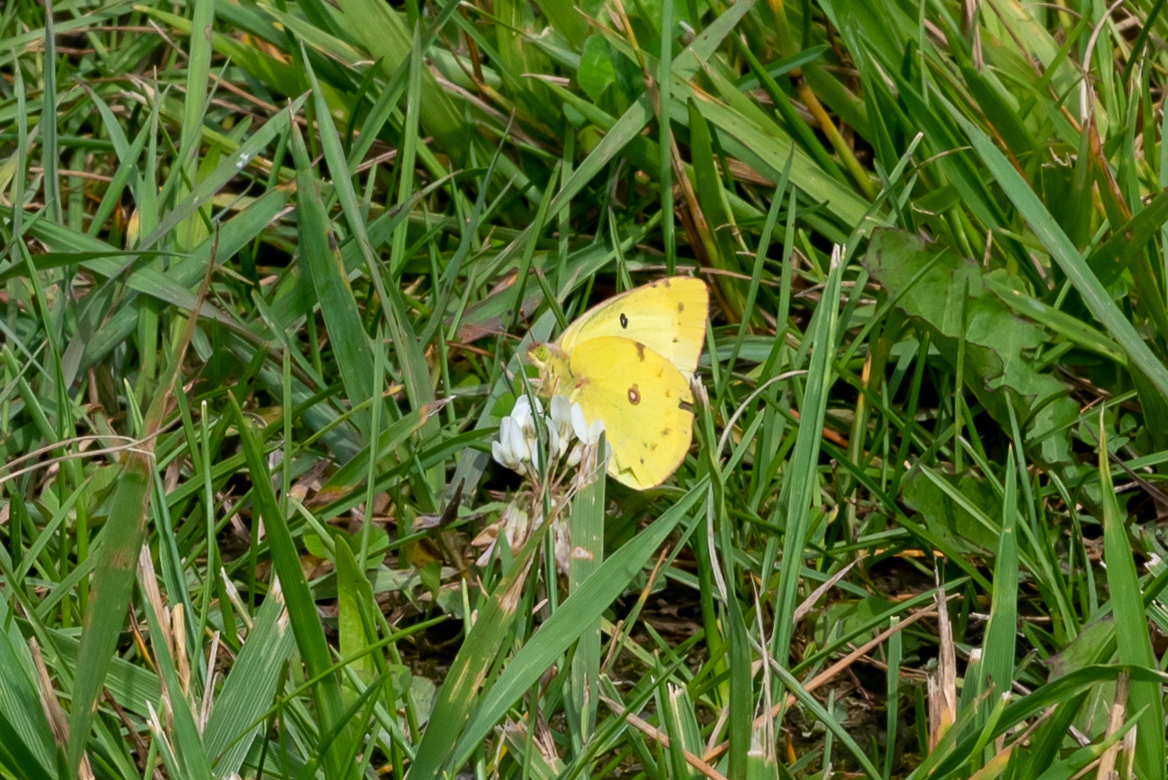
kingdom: Animalia
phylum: Arthropoda
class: Insecta
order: Lepidoptera
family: Pieridae
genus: Colias
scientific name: Colias philodice
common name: Clouded sulphur
